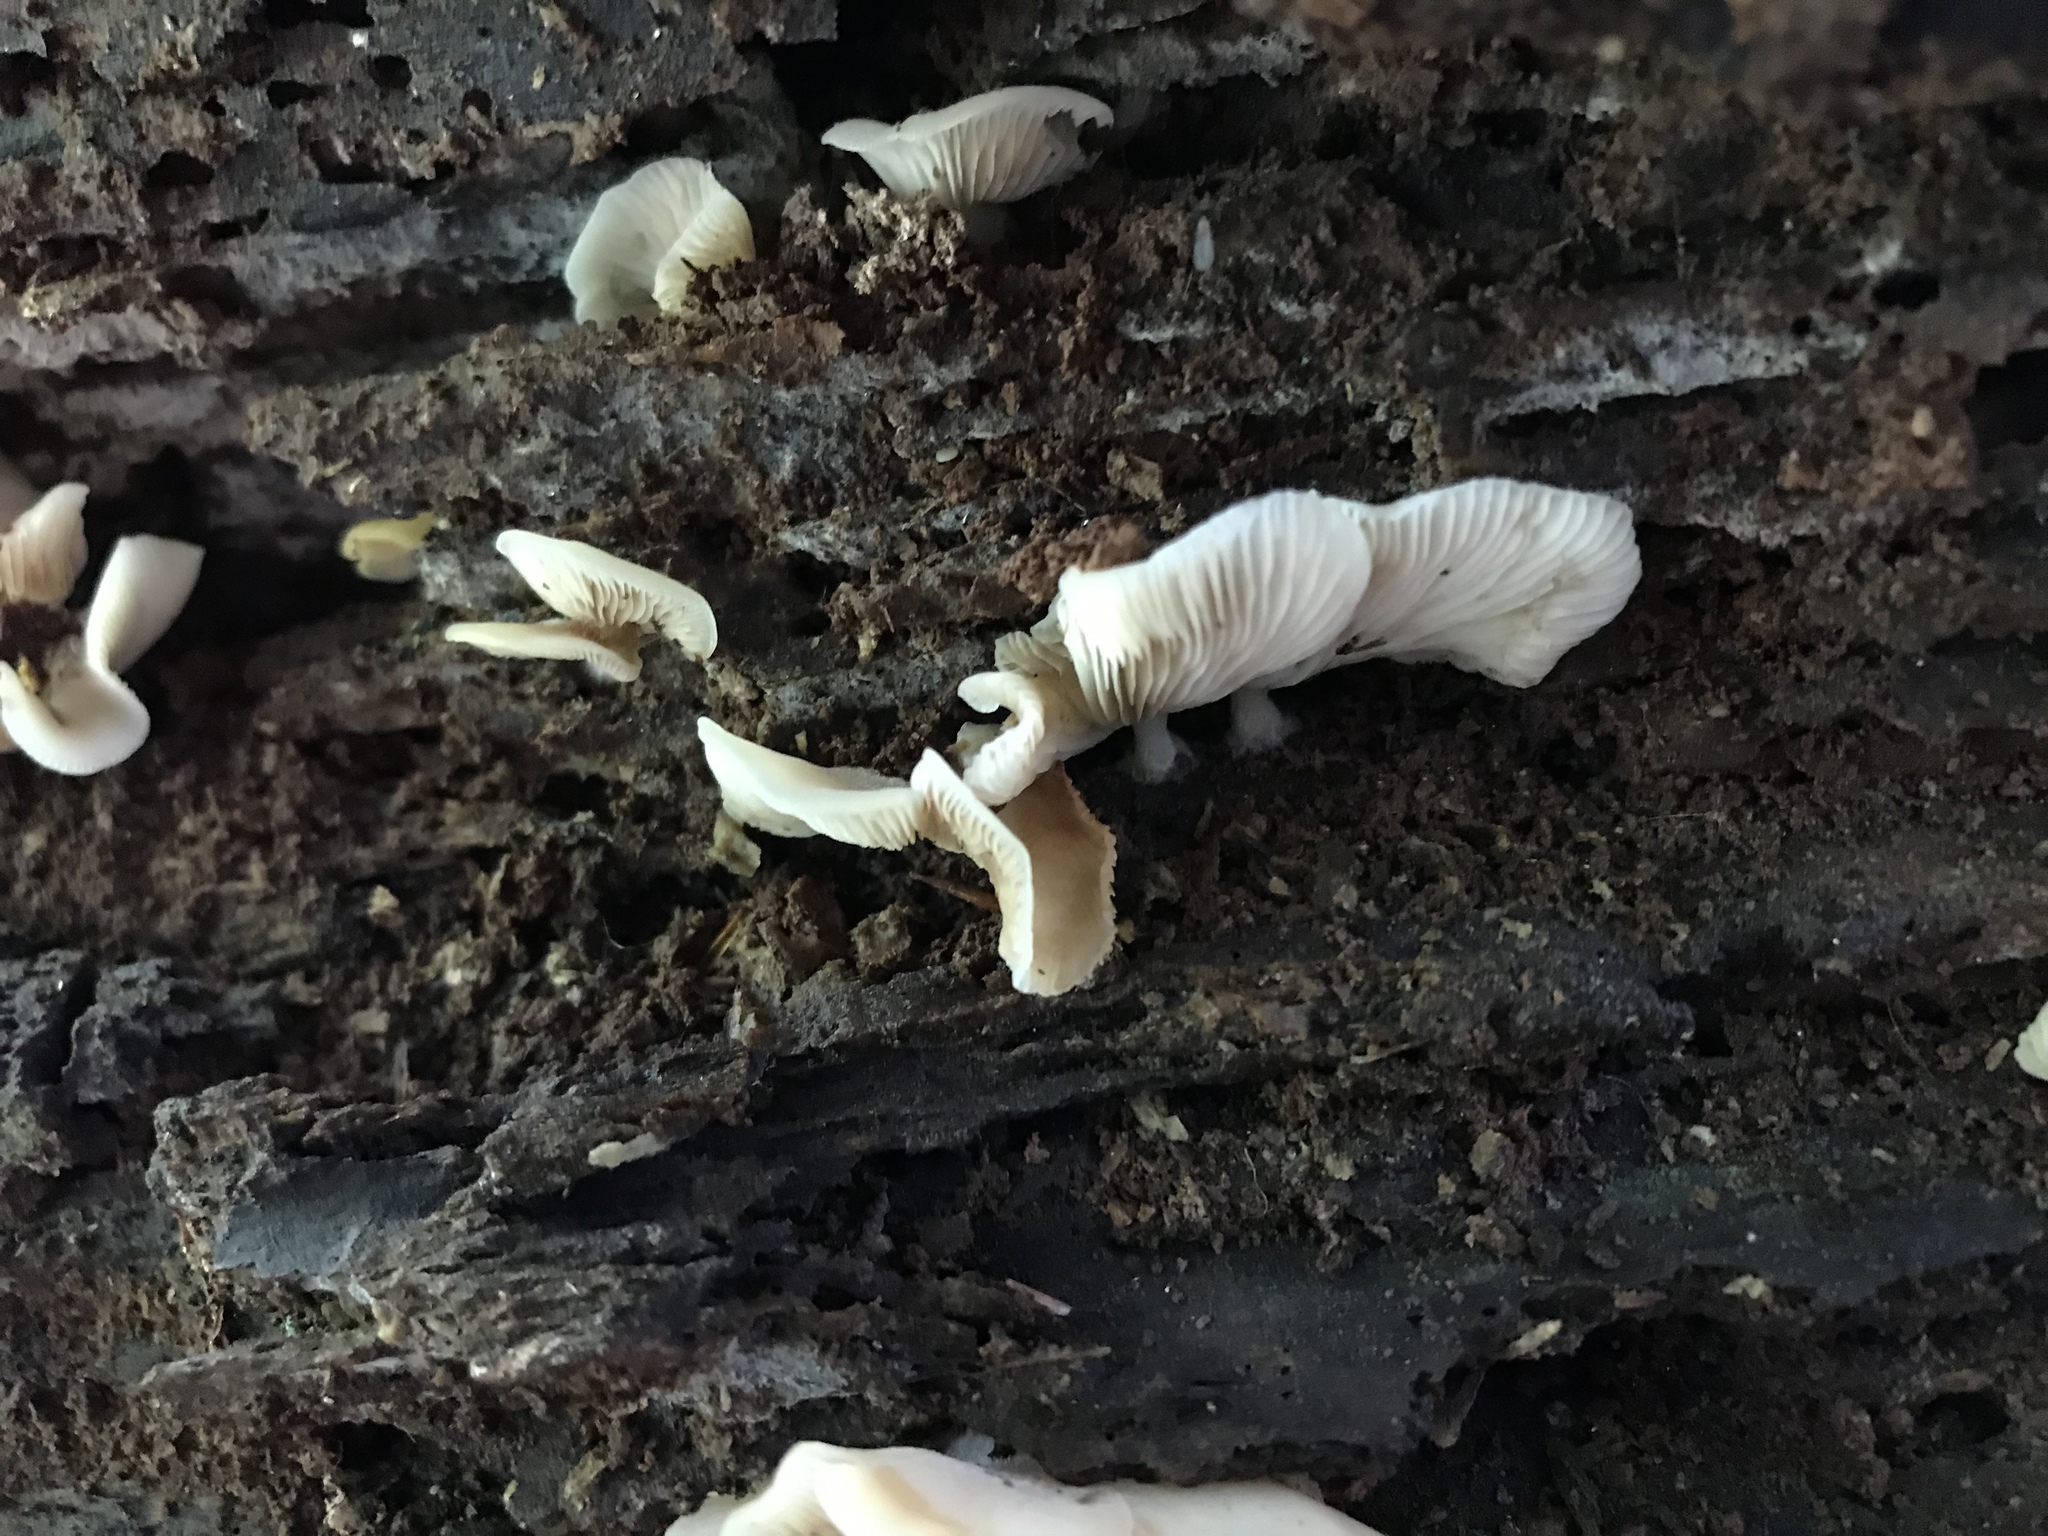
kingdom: Fungi
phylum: Basidiomycota
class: Agaricomycetes
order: Agaricales
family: Crepidotaceae
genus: Crepidotus
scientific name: Crepidotus applanatus
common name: Flat crep
